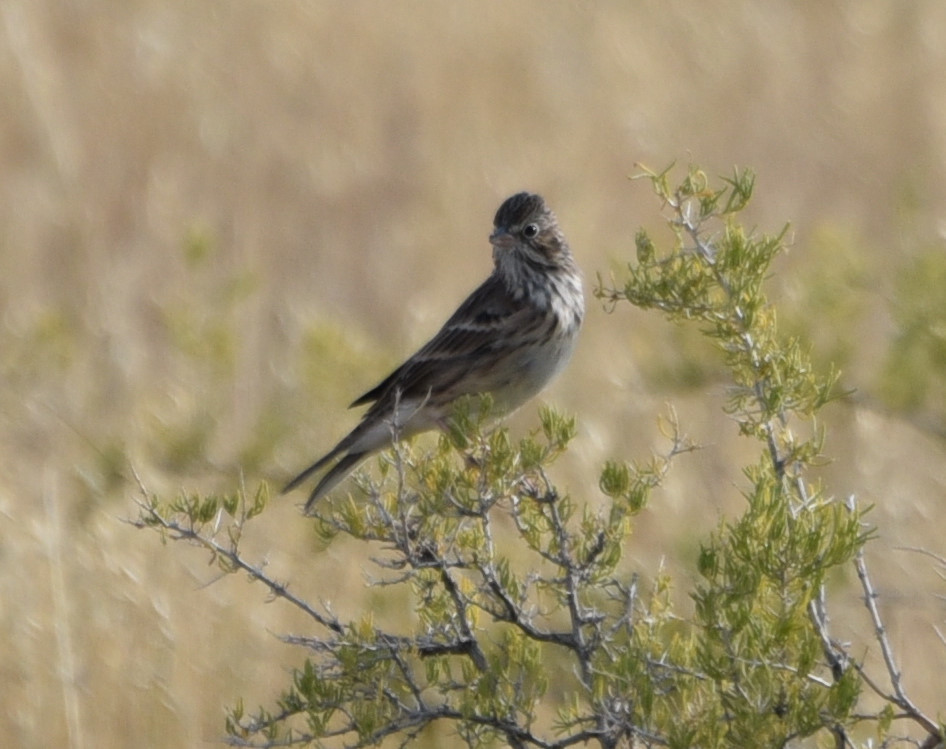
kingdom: Animalia
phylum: Chordata
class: Aves
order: Passeriformes
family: Passerellidae
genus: Pooecetes
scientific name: Pooecetes gramineus
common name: Vesper sparrow
